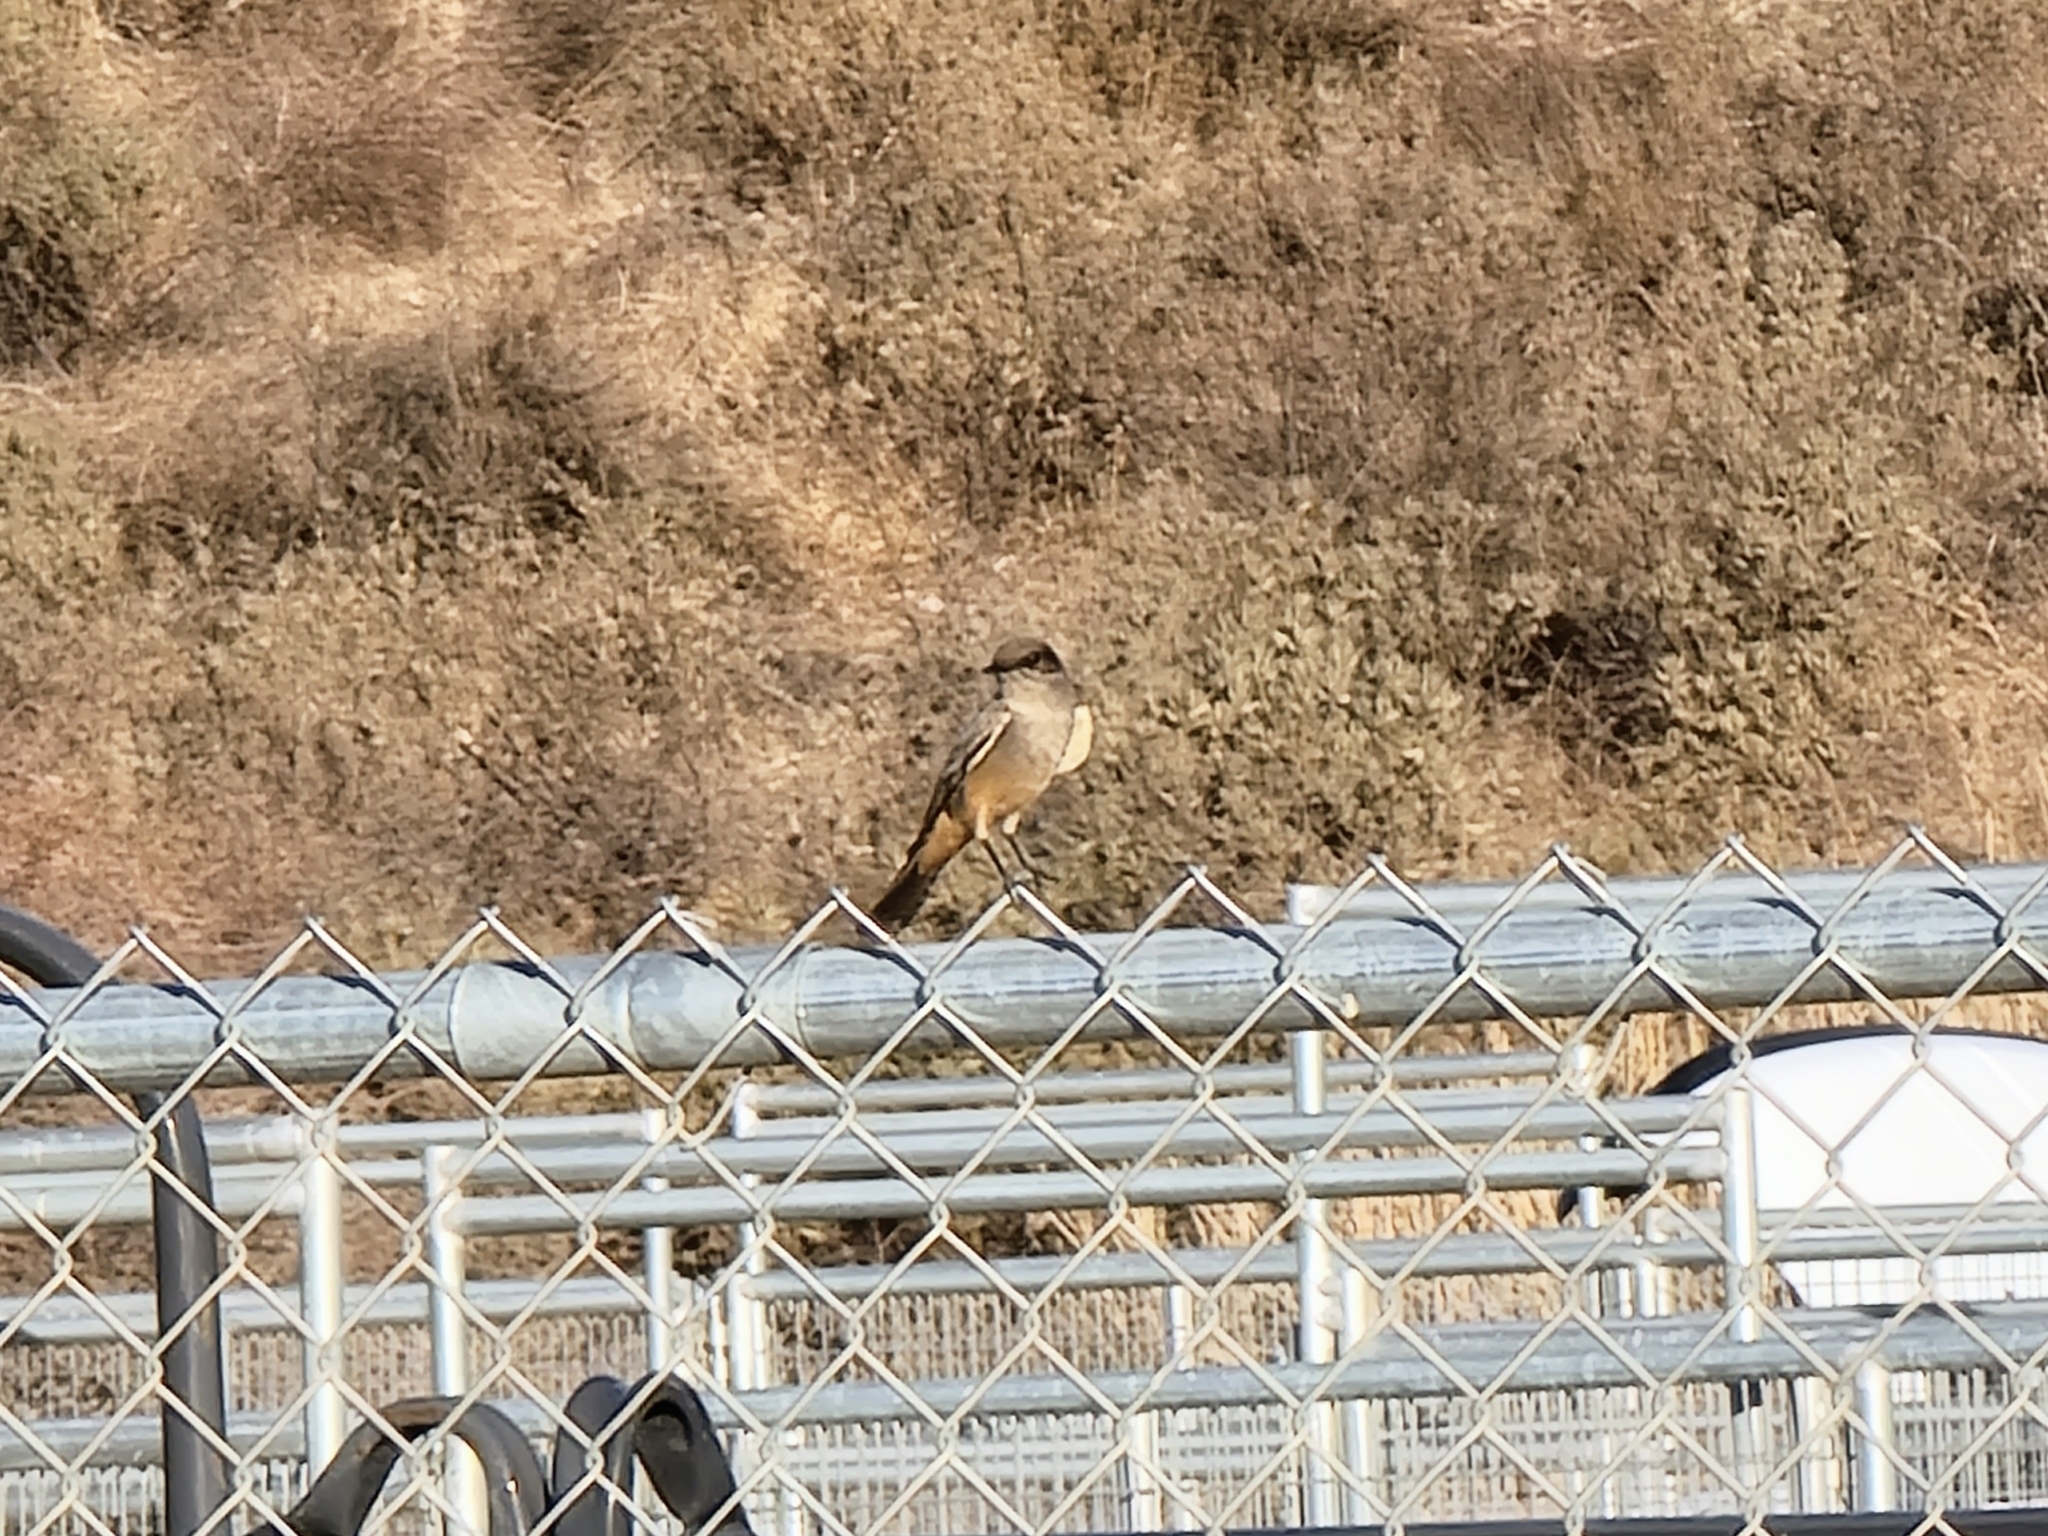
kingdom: Animalia
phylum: Chordata
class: Aves
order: Passeriformes
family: Tyrannidae
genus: Sayornis
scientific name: Sayornis saya
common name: Say's phoebe
